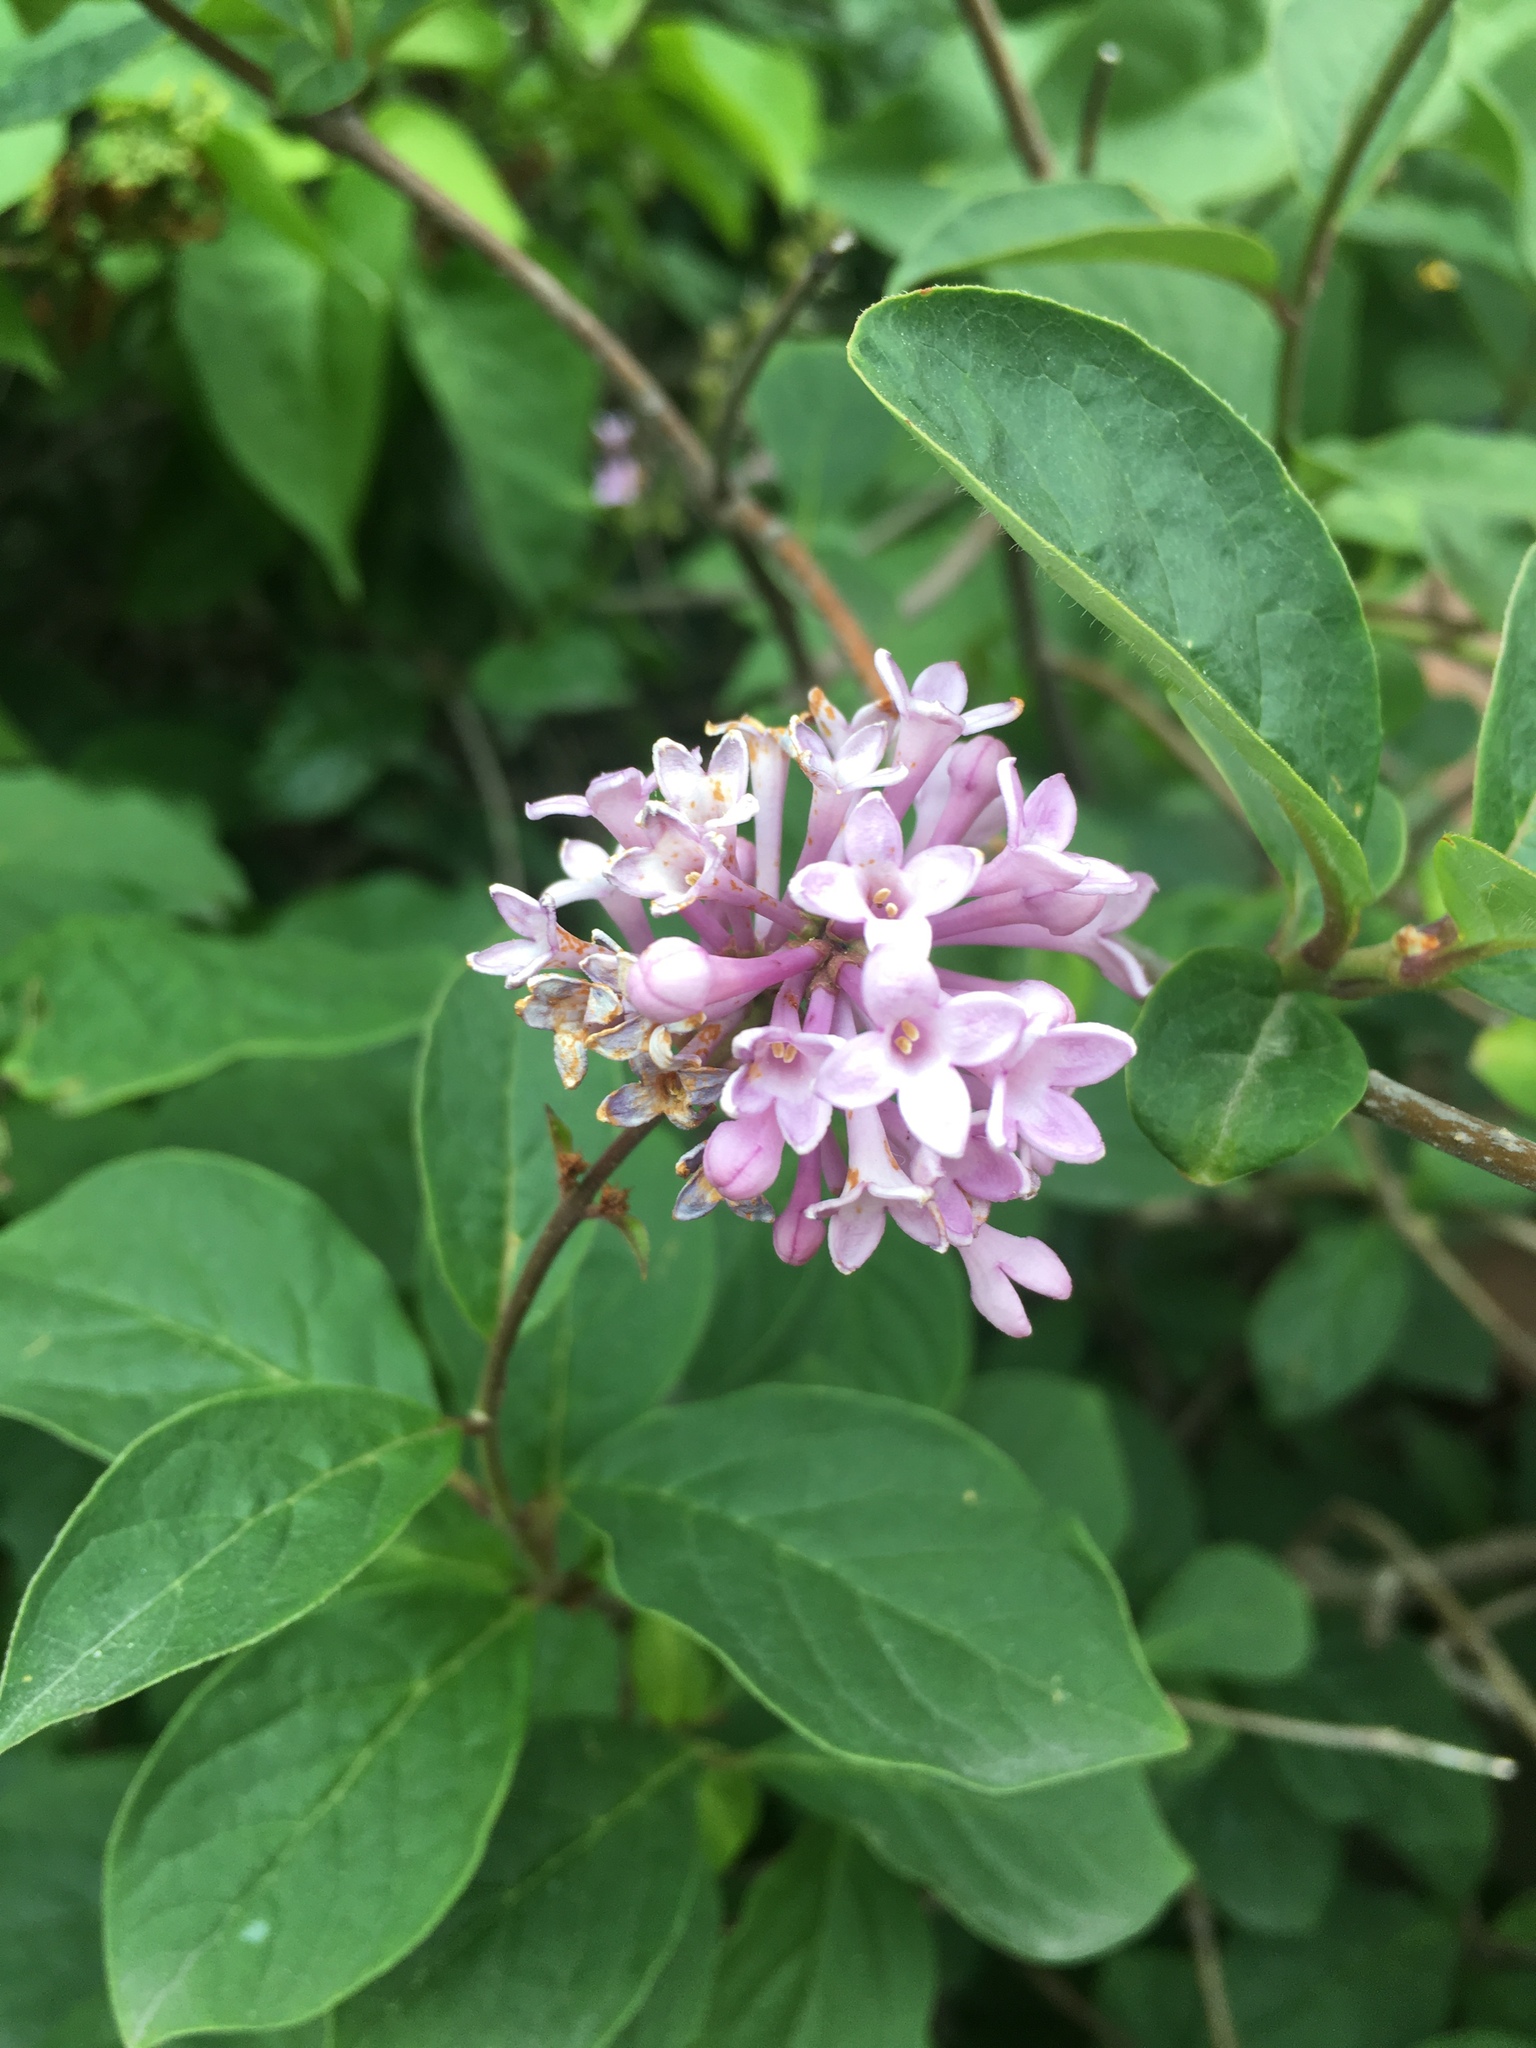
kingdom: Plantae
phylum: Tracheophyta
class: Magnoliopsida
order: Lamiales
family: Oleaceae
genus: Syringa
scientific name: Syringa vulgaris
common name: Common lilac
